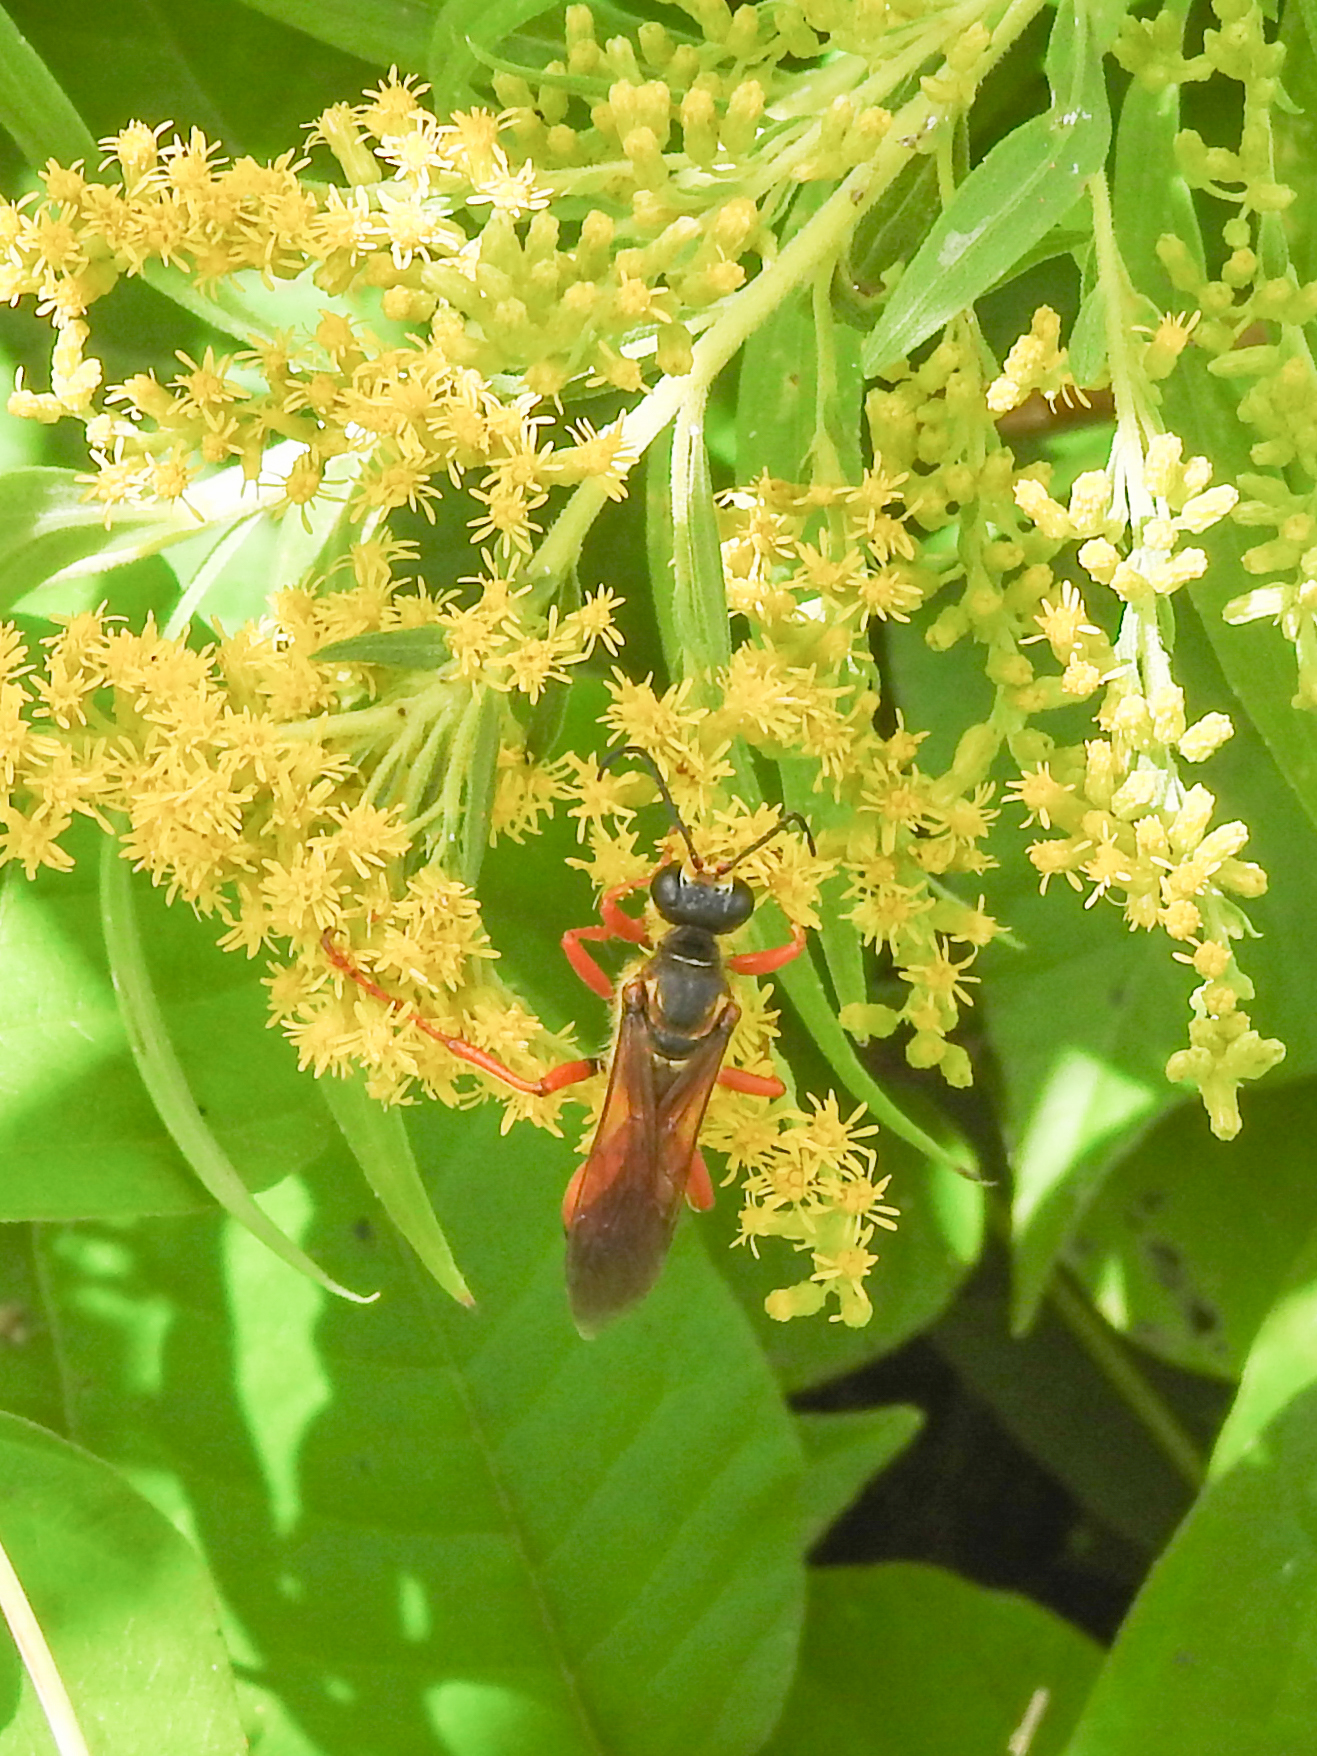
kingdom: Animalia
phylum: Arthropoda
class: Insecta
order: Hymenoptera
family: Sphecidae
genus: Sphex
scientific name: Sphex ichneumoneus
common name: Great golden digger wasp
